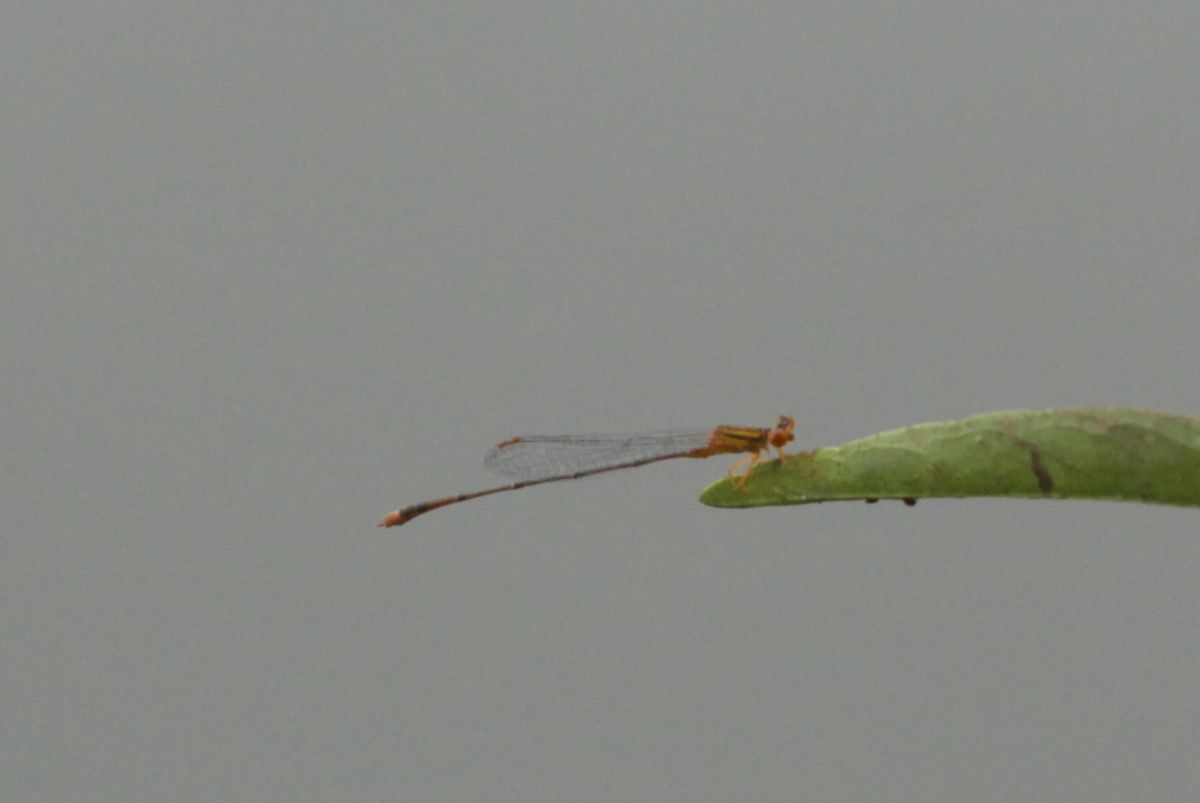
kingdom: Animalia
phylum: Arthropoda
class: Insecta
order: Odonata
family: Coenagrionidae
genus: Enallagma
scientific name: Enallagma signatum
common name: Orange bluet
